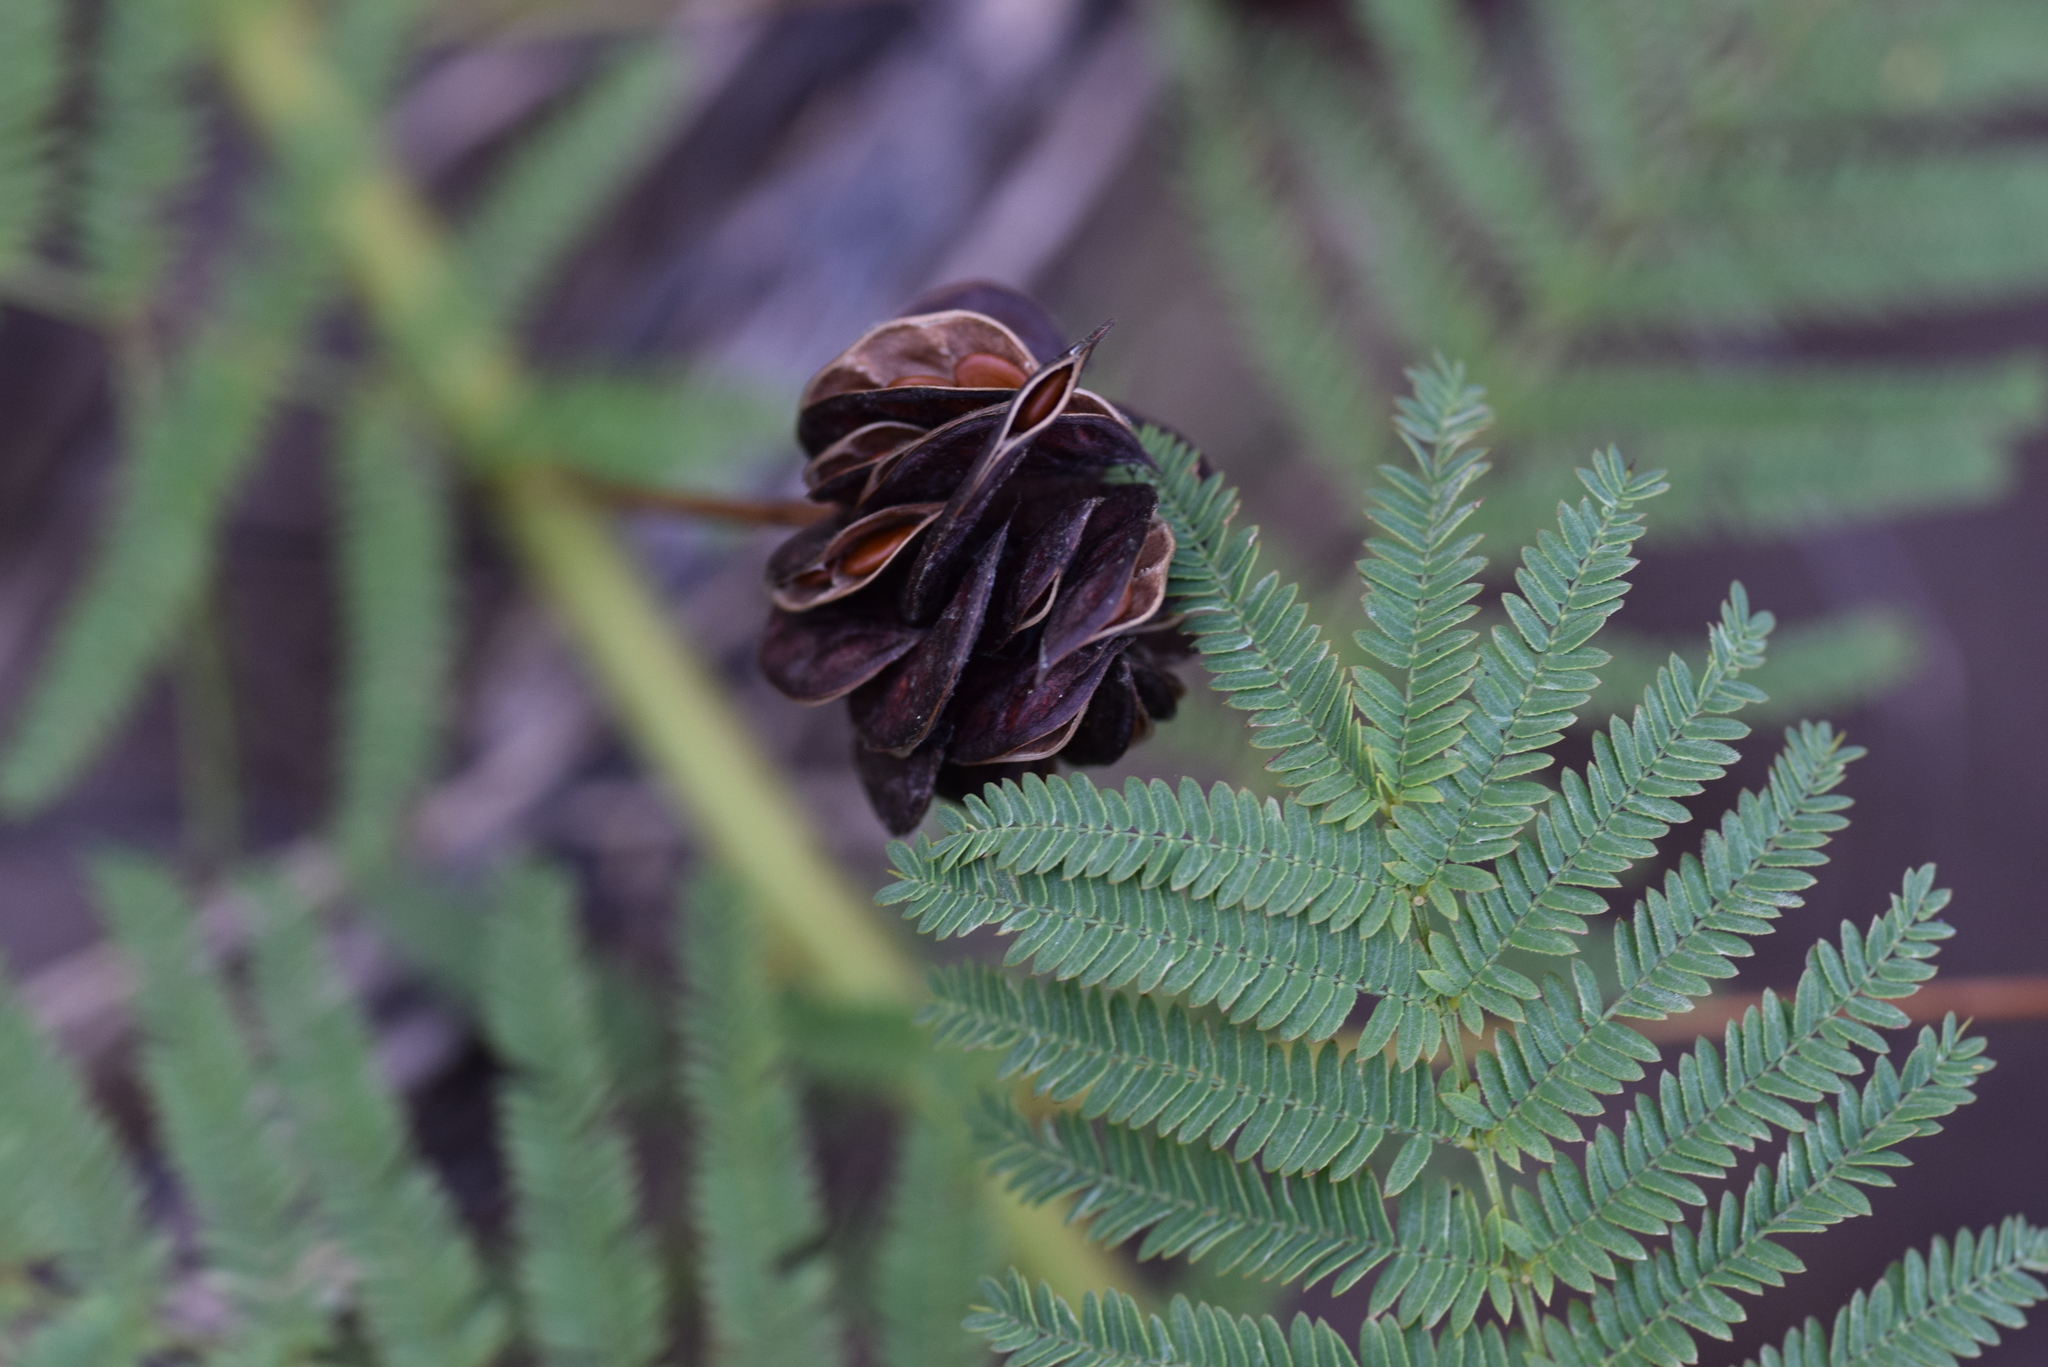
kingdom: Plantae
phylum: Tracheophyta
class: Magnoliopsida
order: Fabales
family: Fabaceae
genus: Desmanthus
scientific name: Desmanthus illinoensis
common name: Illinois bundle-flower
